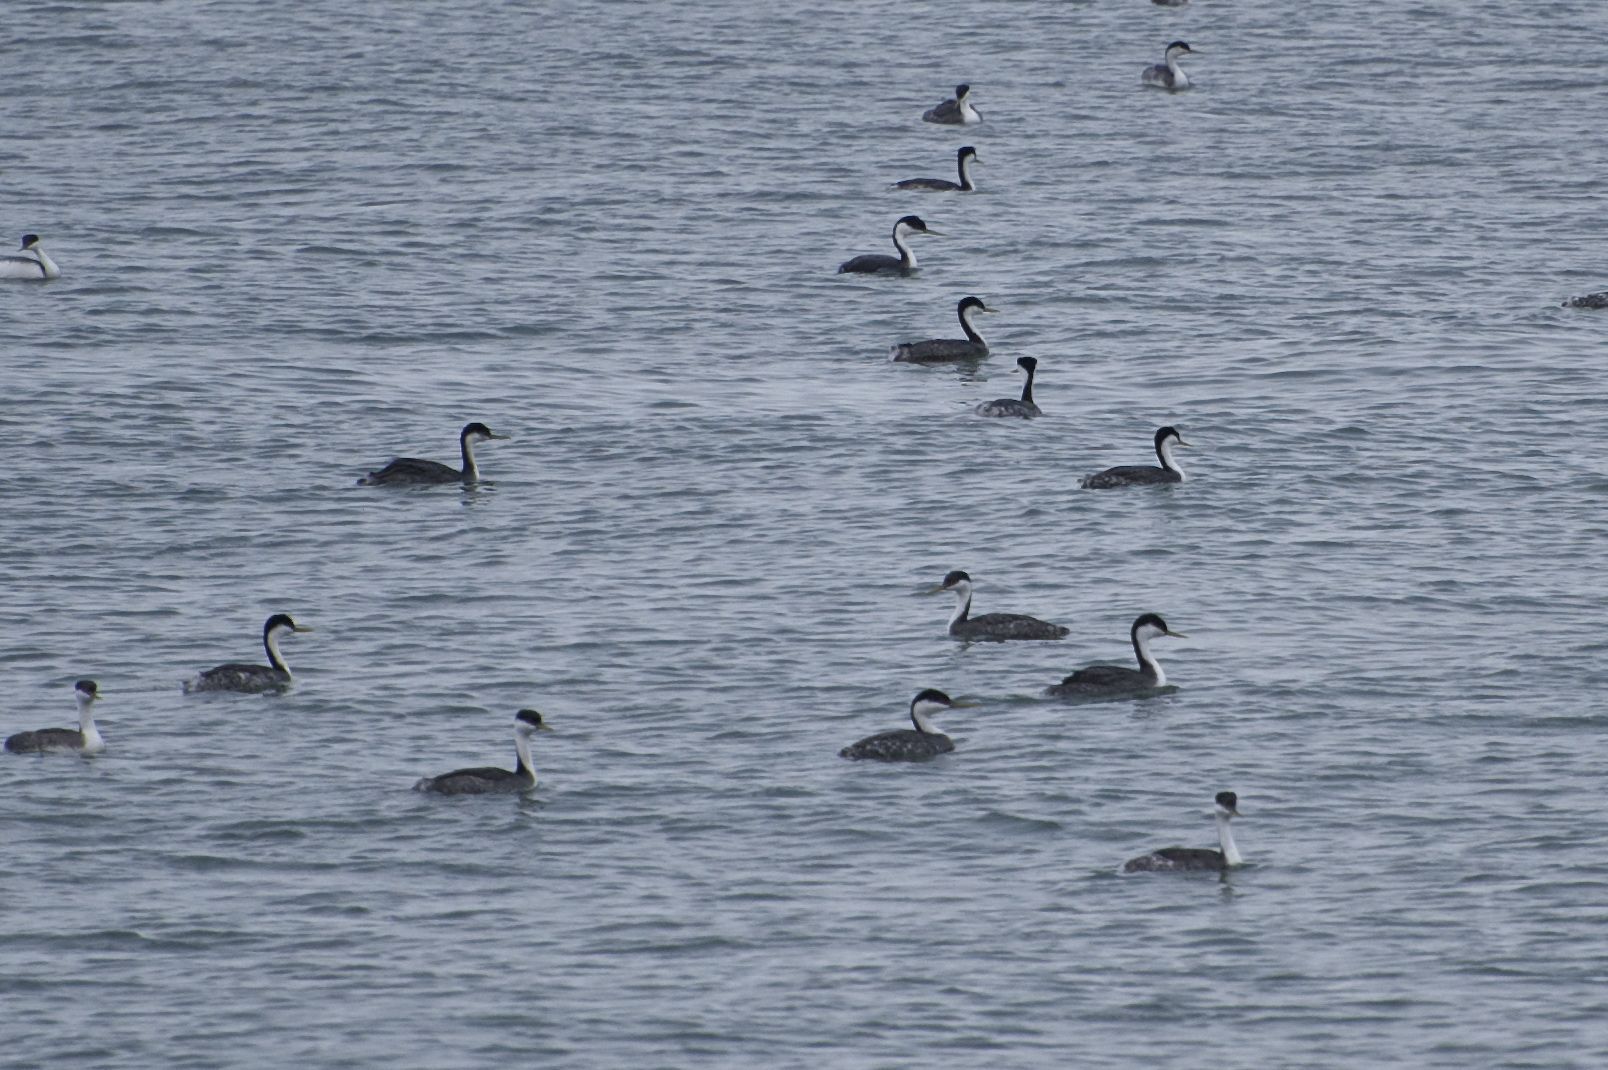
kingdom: Animalia
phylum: Chordata
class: Aves
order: Podicipediformes
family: Podicipedidae
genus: Aechmophorus
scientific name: Aechmophorus occidentalis
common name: Western grebe
